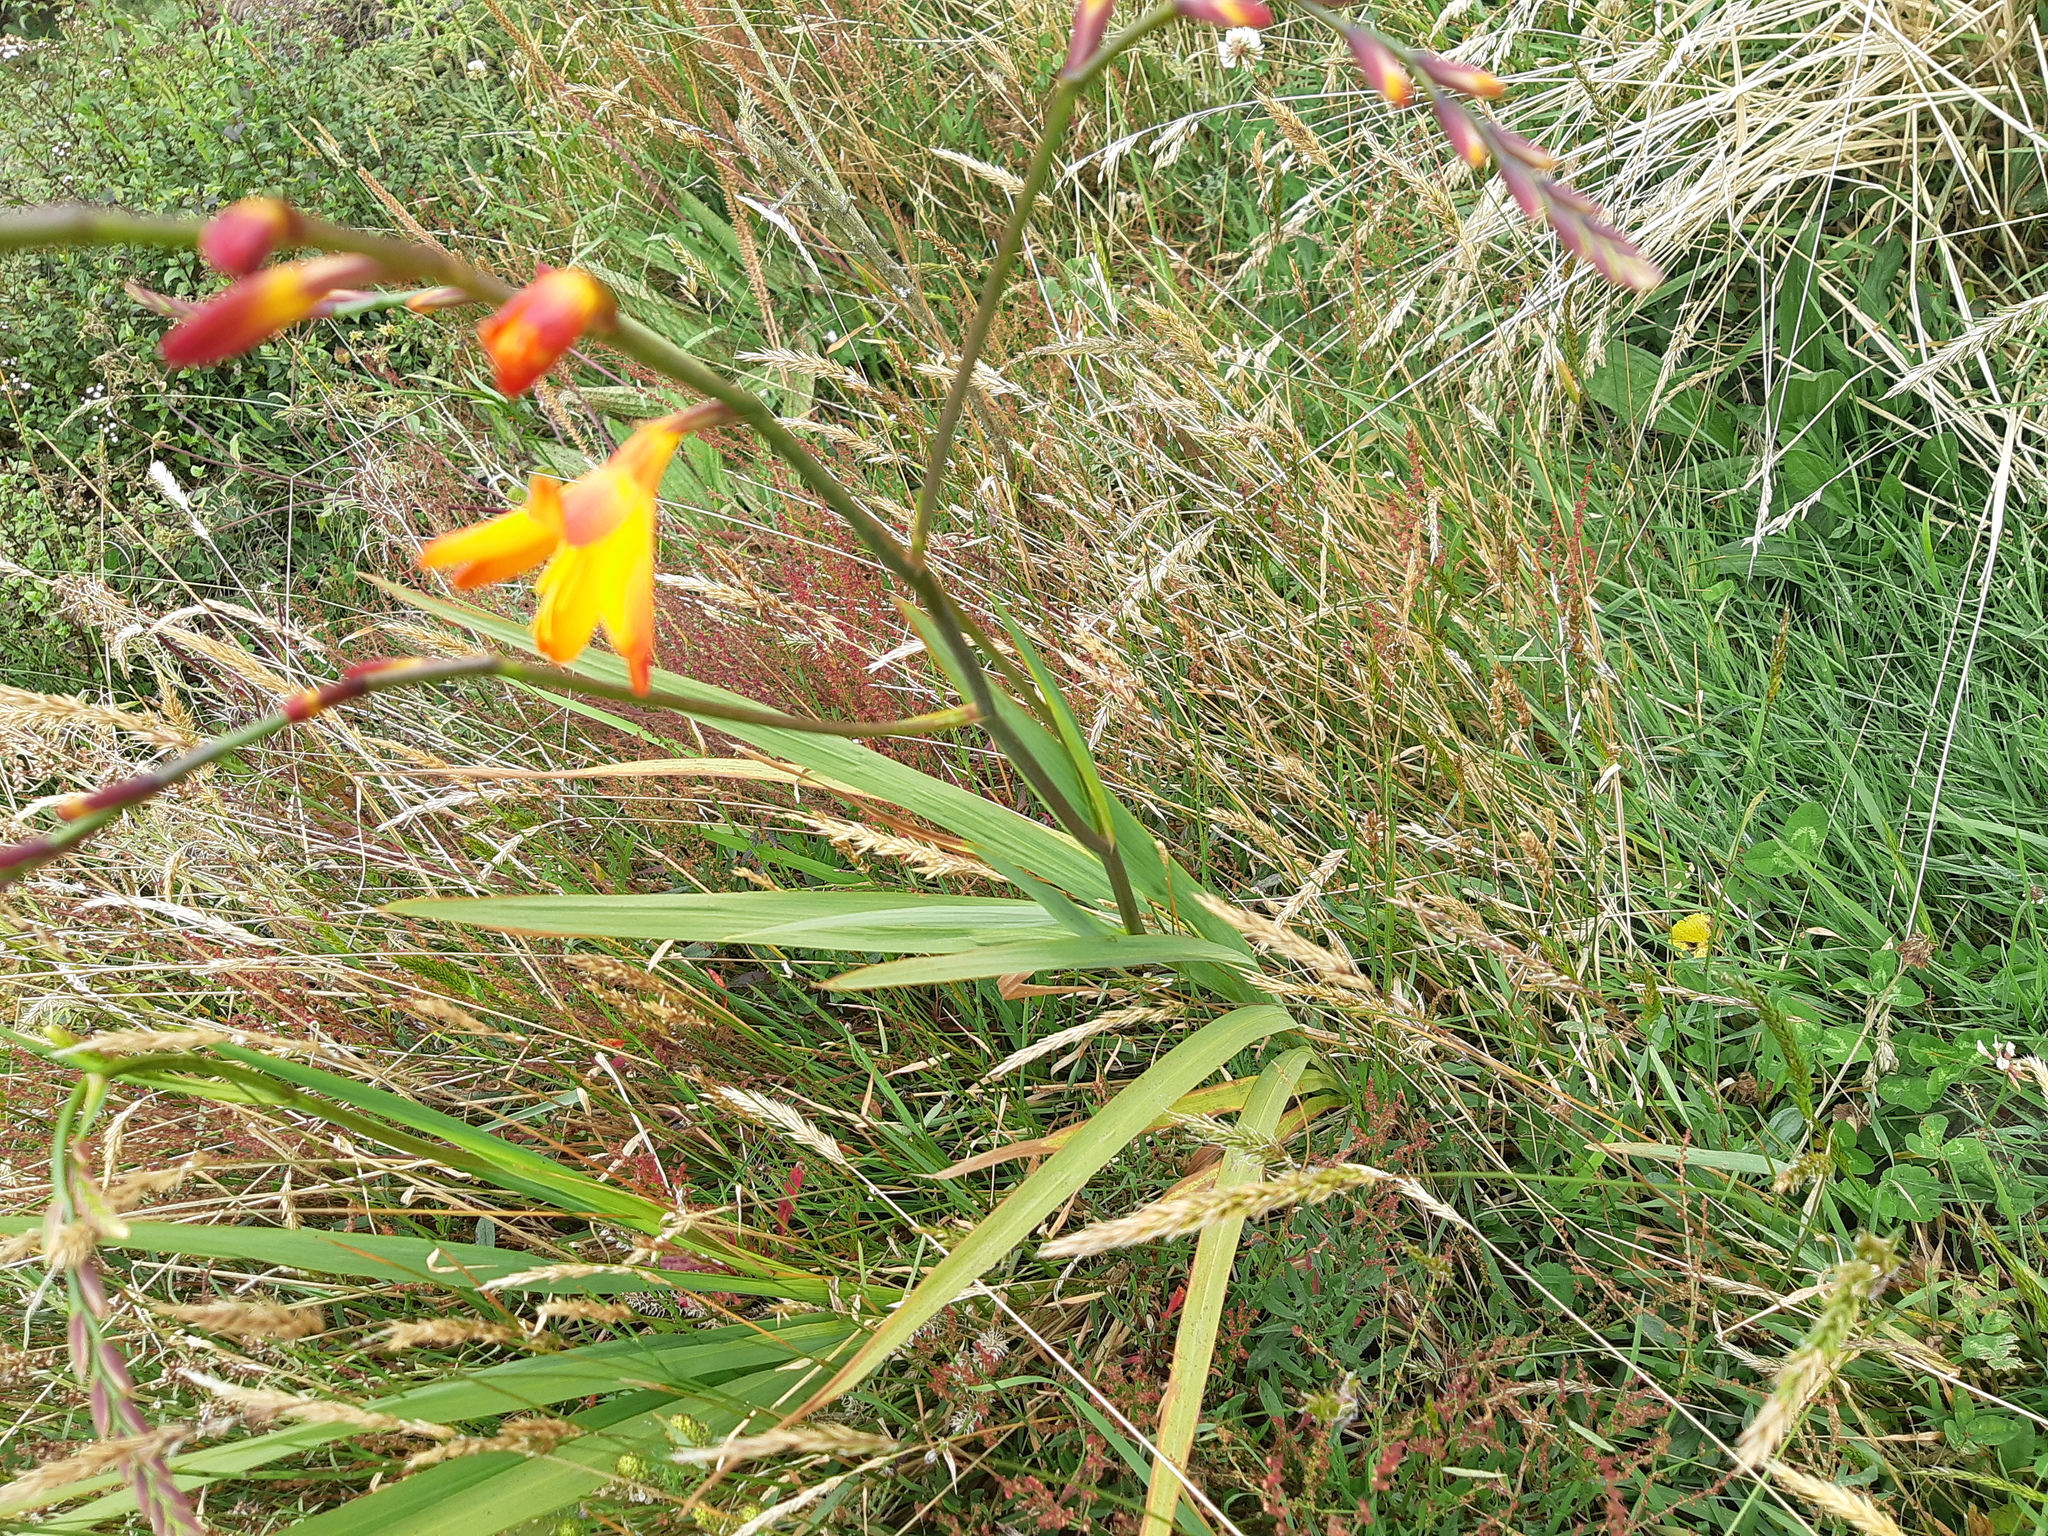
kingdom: Plantae
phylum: Tracheophyta
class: Liliopsida
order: Asparagales
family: Iridaceae
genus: Crocosmia
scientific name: Crocosmia crocosmiiflora
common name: Montbretia
